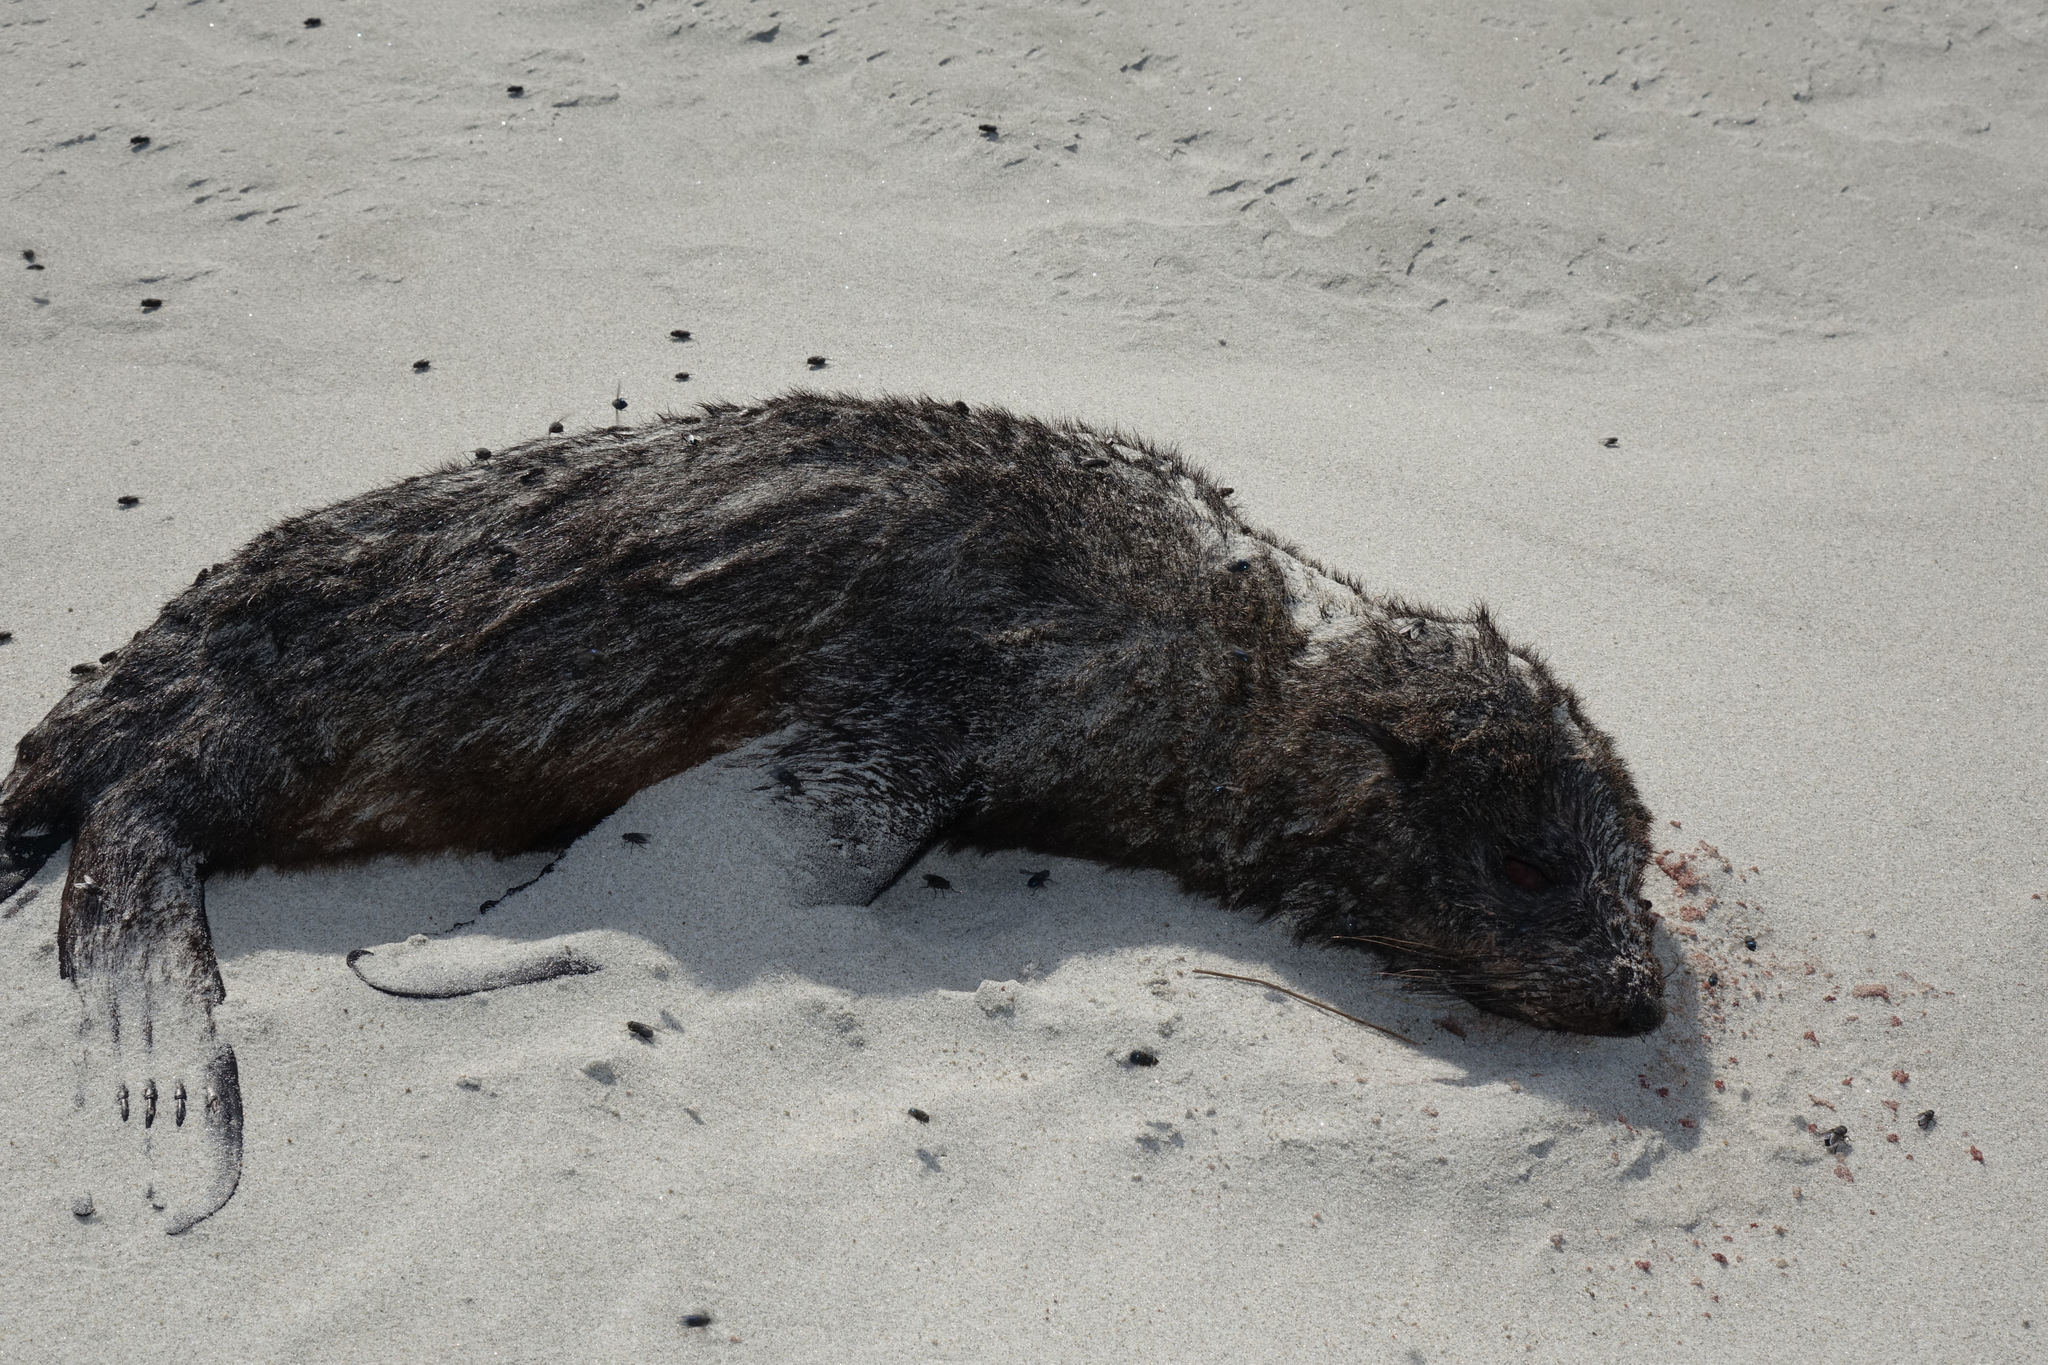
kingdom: Animalia
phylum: Chordata
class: Mammalia
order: Carnivora
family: Otariidae
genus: Arctocephalus
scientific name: Arctocephalus forsteri
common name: New zealand fur seal
